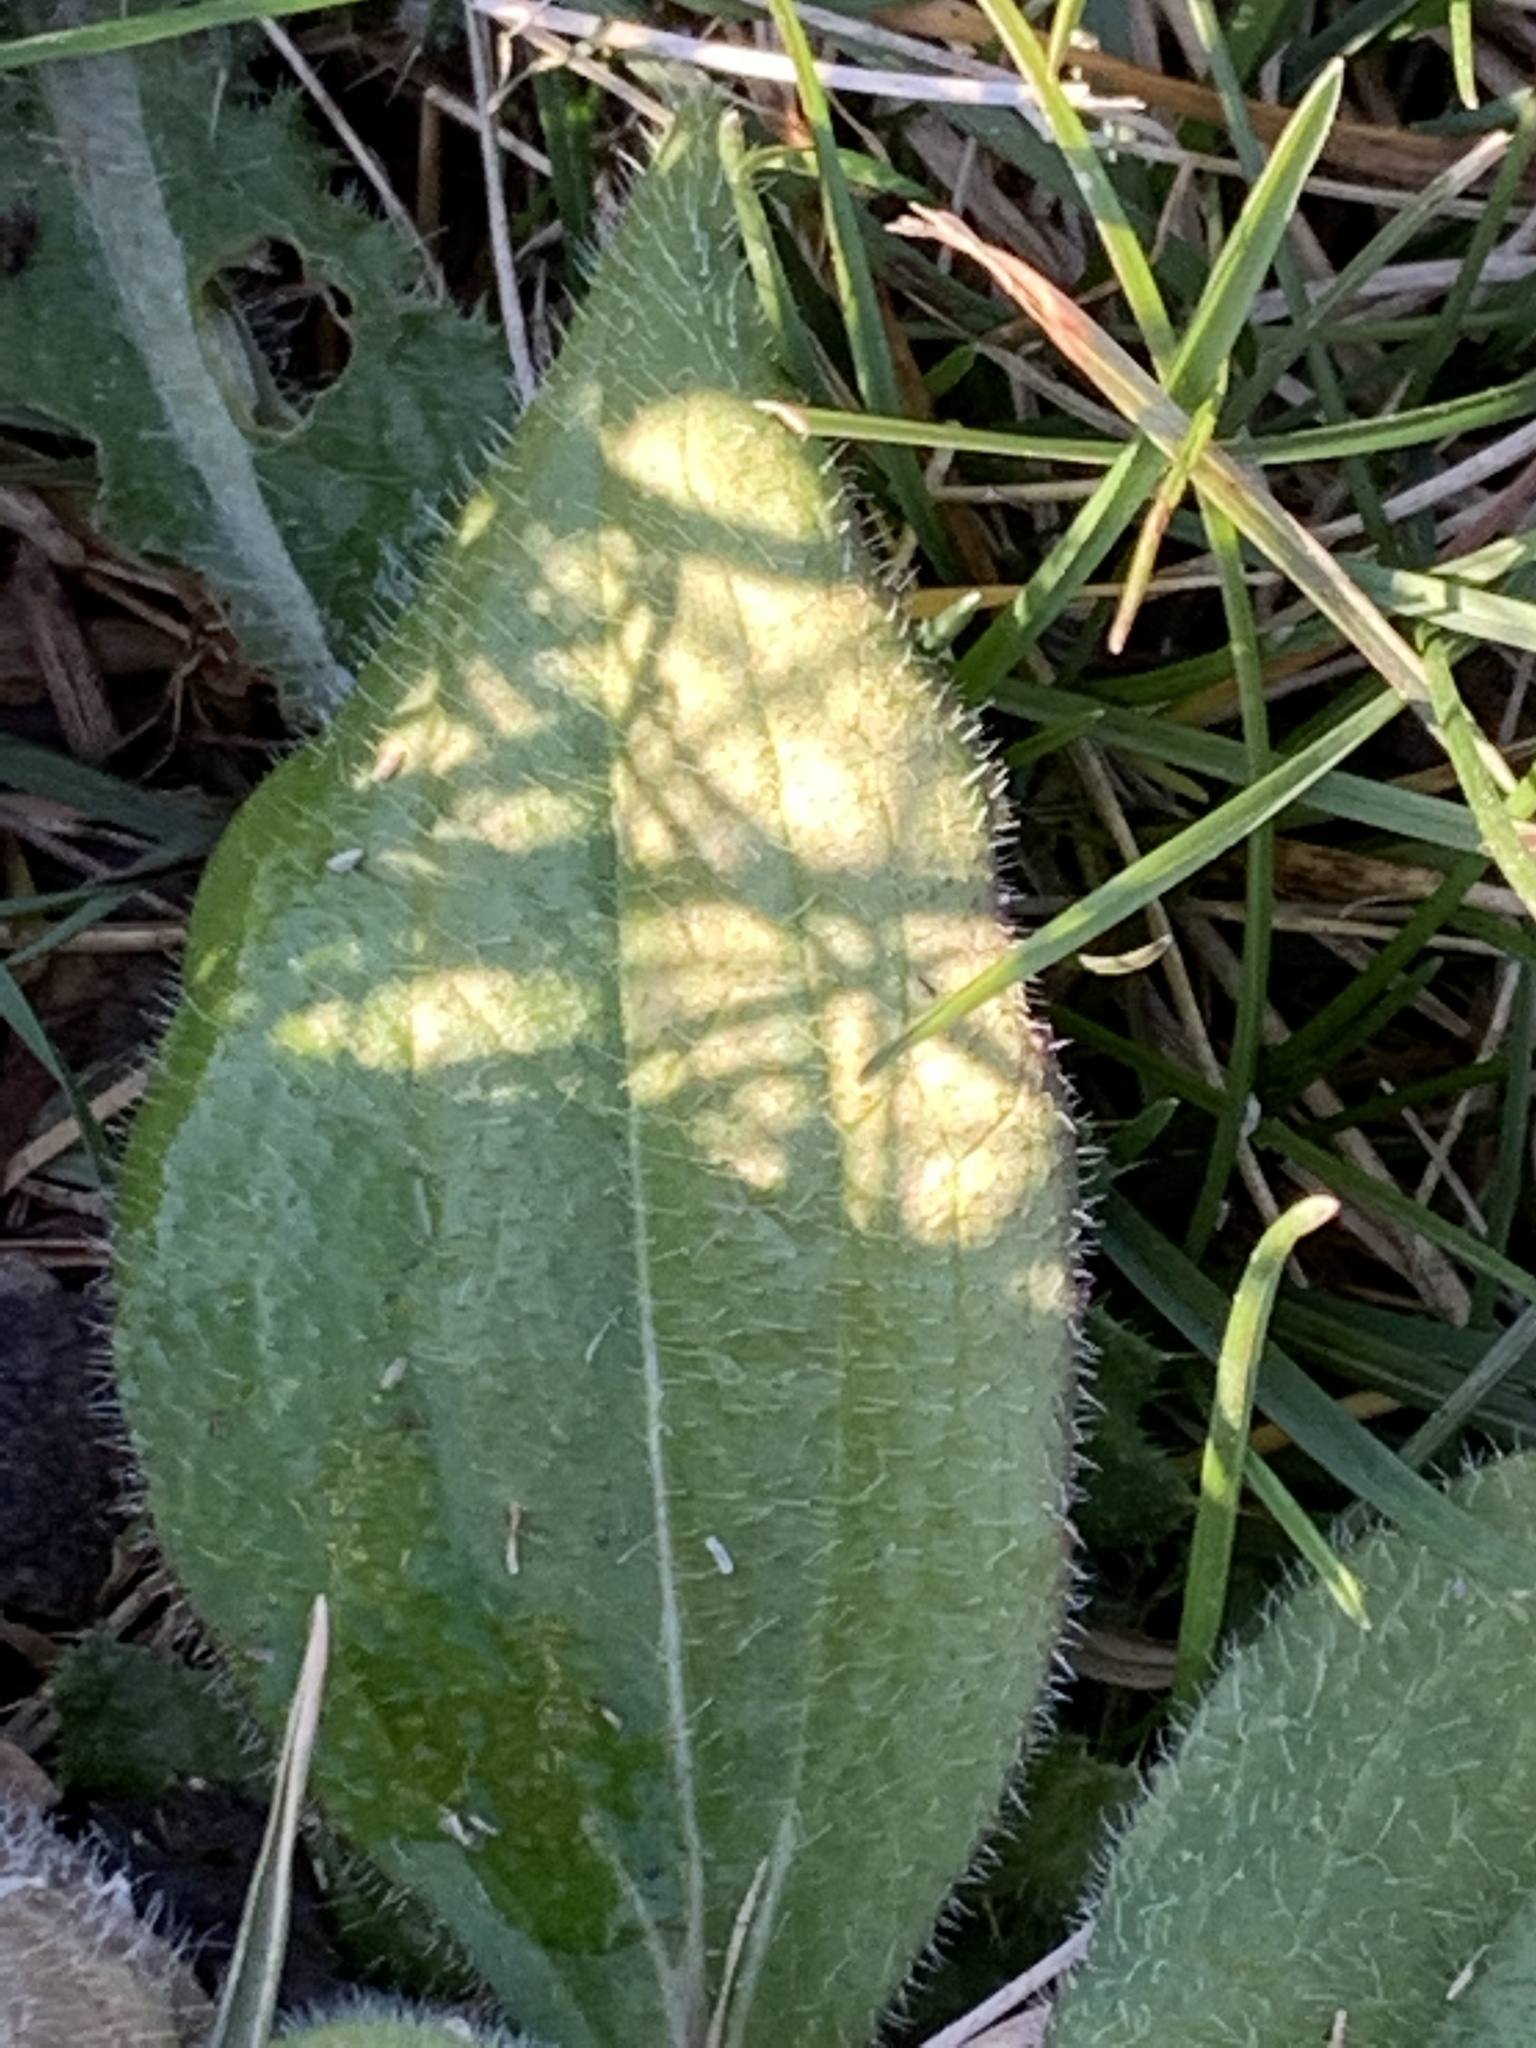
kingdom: Plantae
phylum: Tracheophyta
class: Magnoliopsida
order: Asterales
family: Asteraceae
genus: Rudbeckia
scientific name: Rudbeckia hirta
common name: Black-eyed-susan
